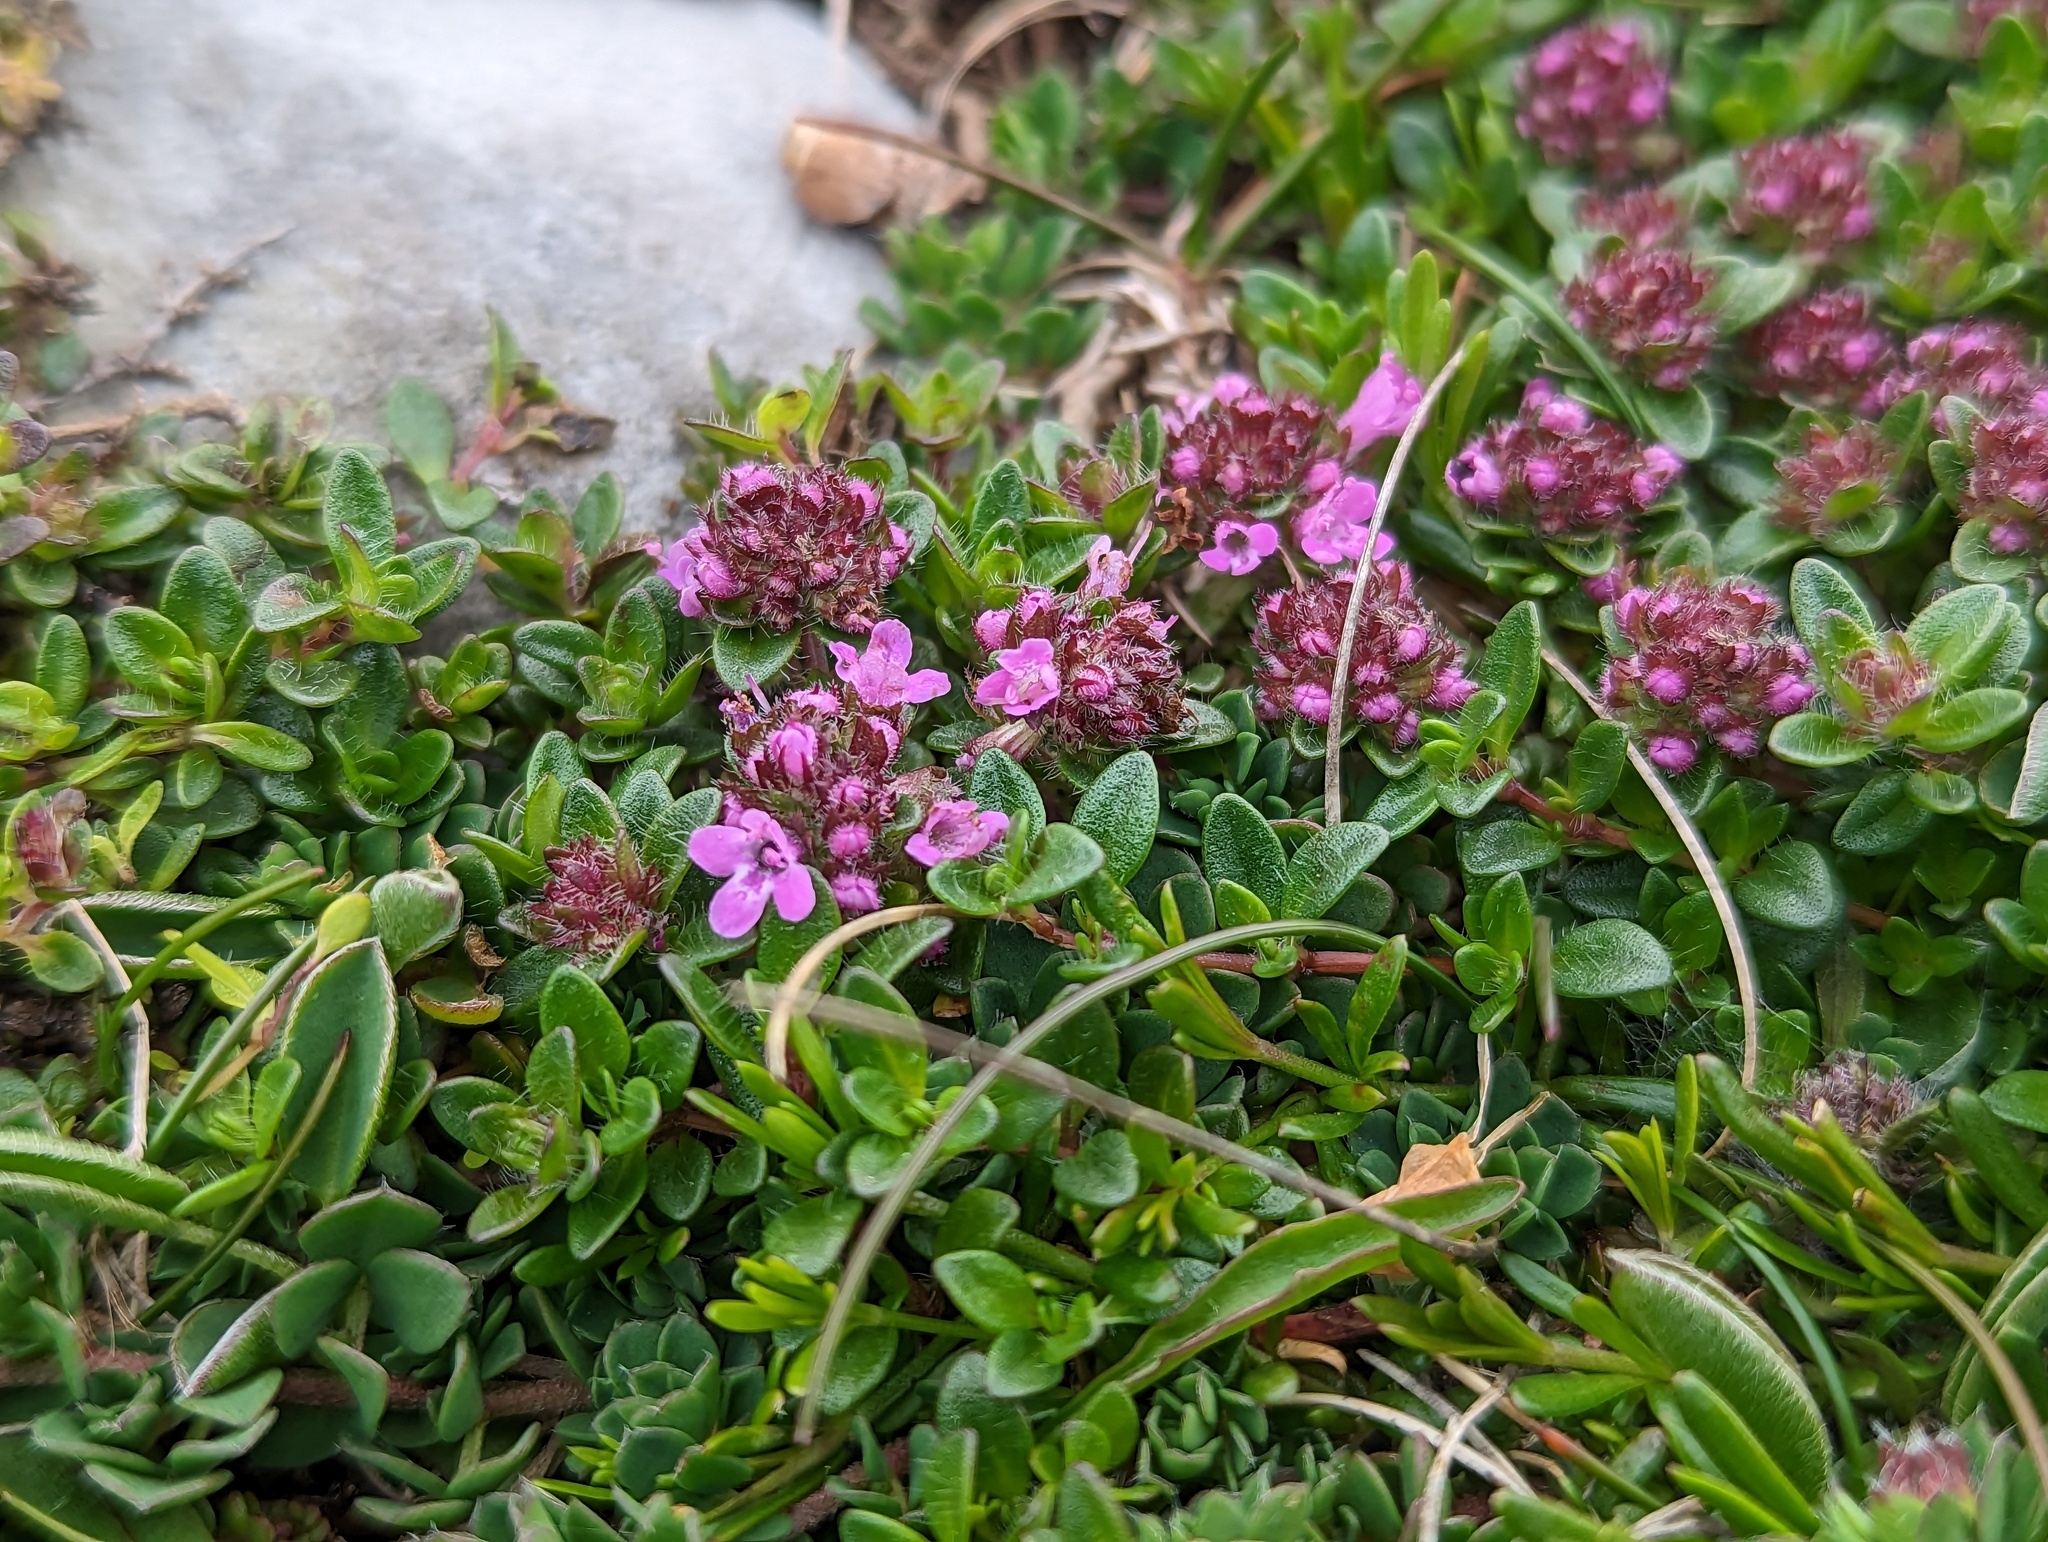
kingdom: Plantae
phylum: Tracheophyta
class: Magnoliopsida
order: Lamiales
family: Lamiaceae
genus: Thymus
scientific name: Thymus praecox
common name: Wild thyme
